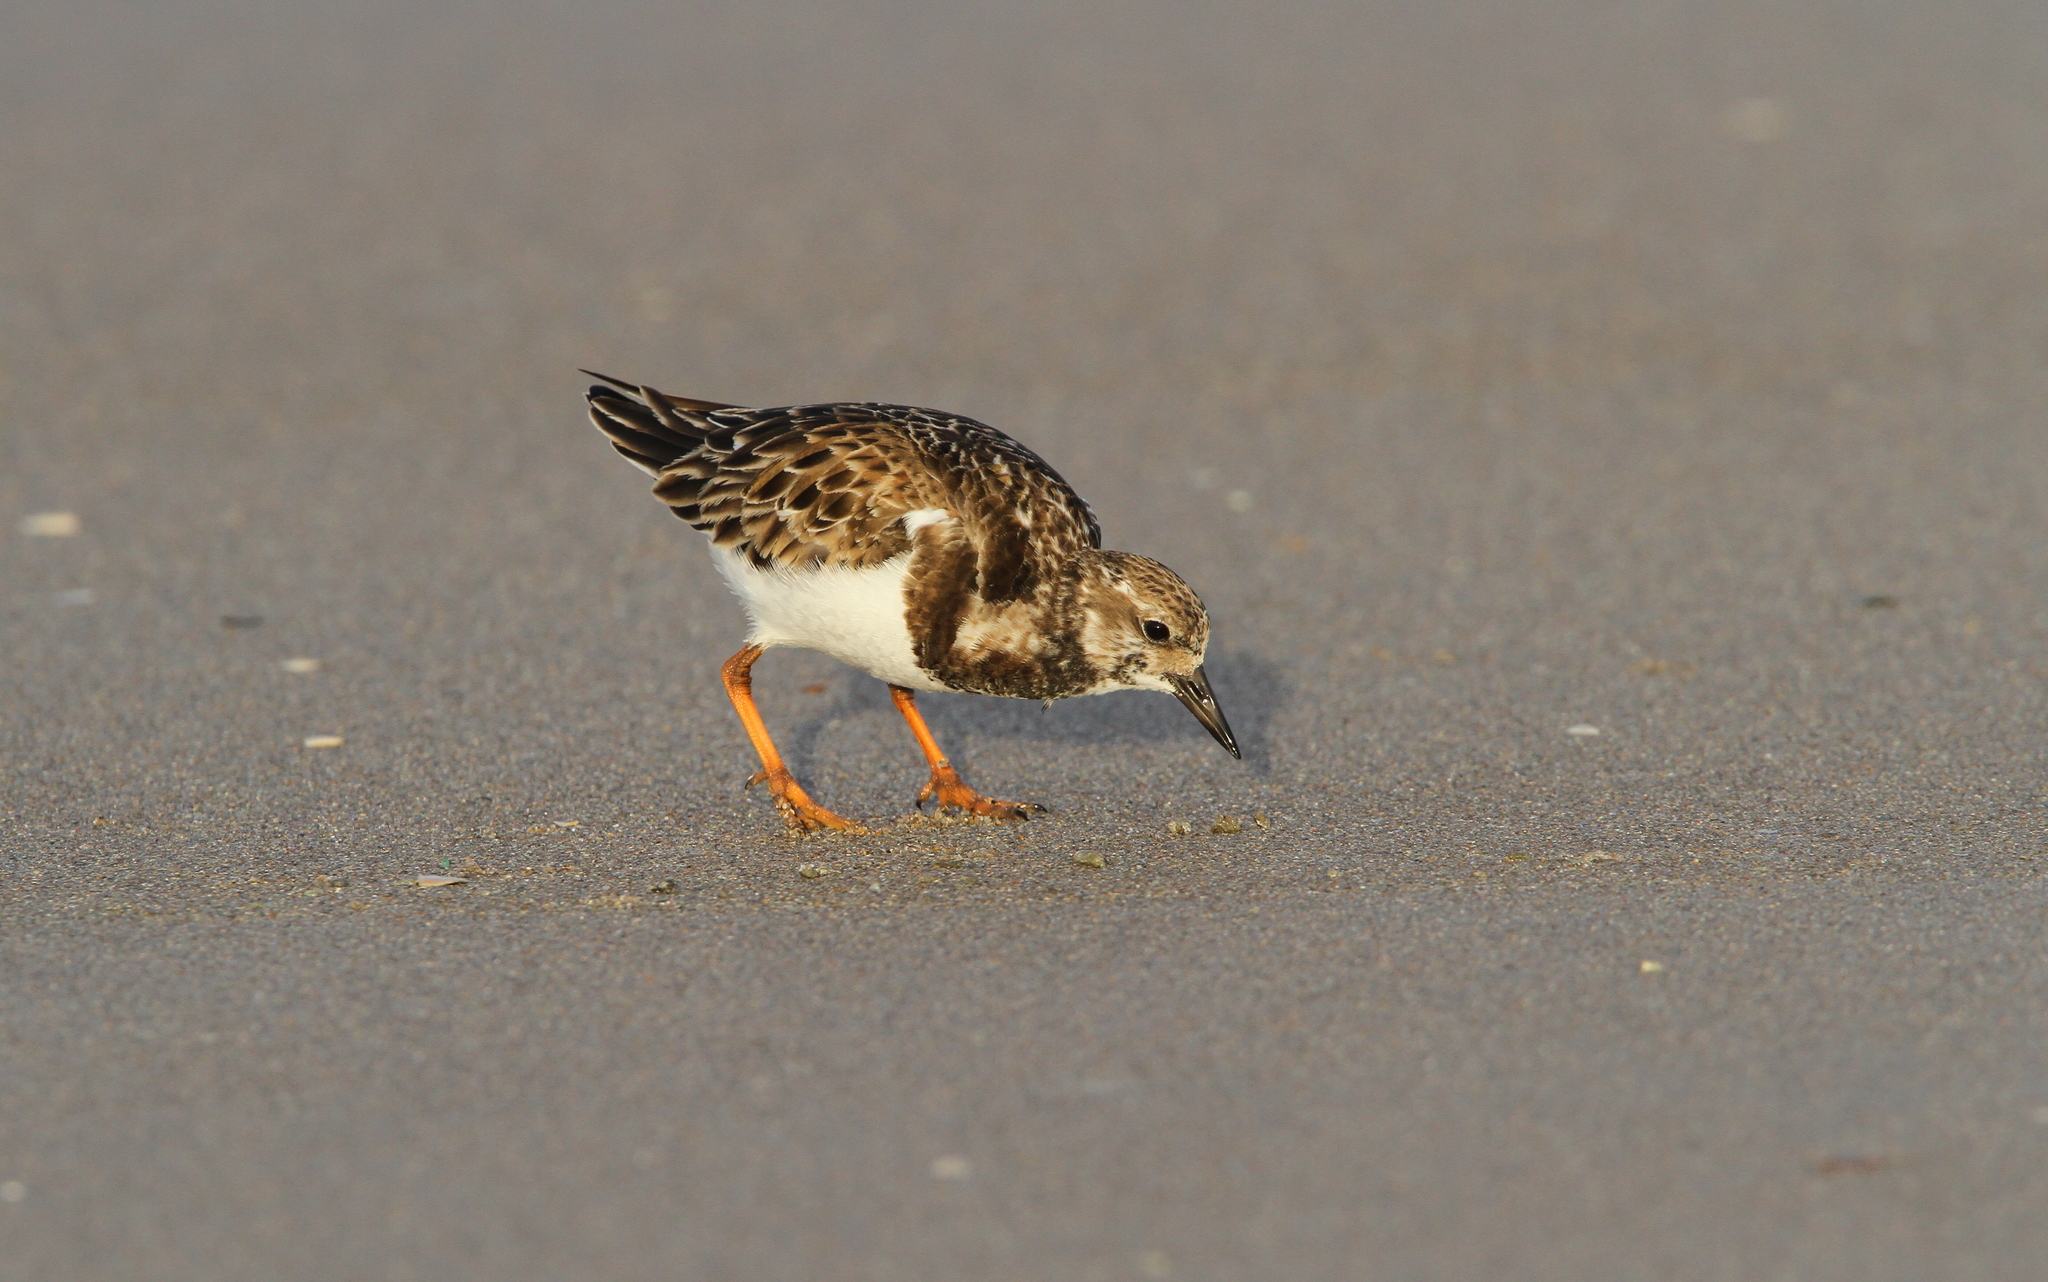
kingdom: Animalia
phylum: Chordata
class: Aves
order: Charadriiformes
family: Scolopacidae
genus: Arenaria
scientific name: Arenaria interpres
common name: Ruddy turnstone
